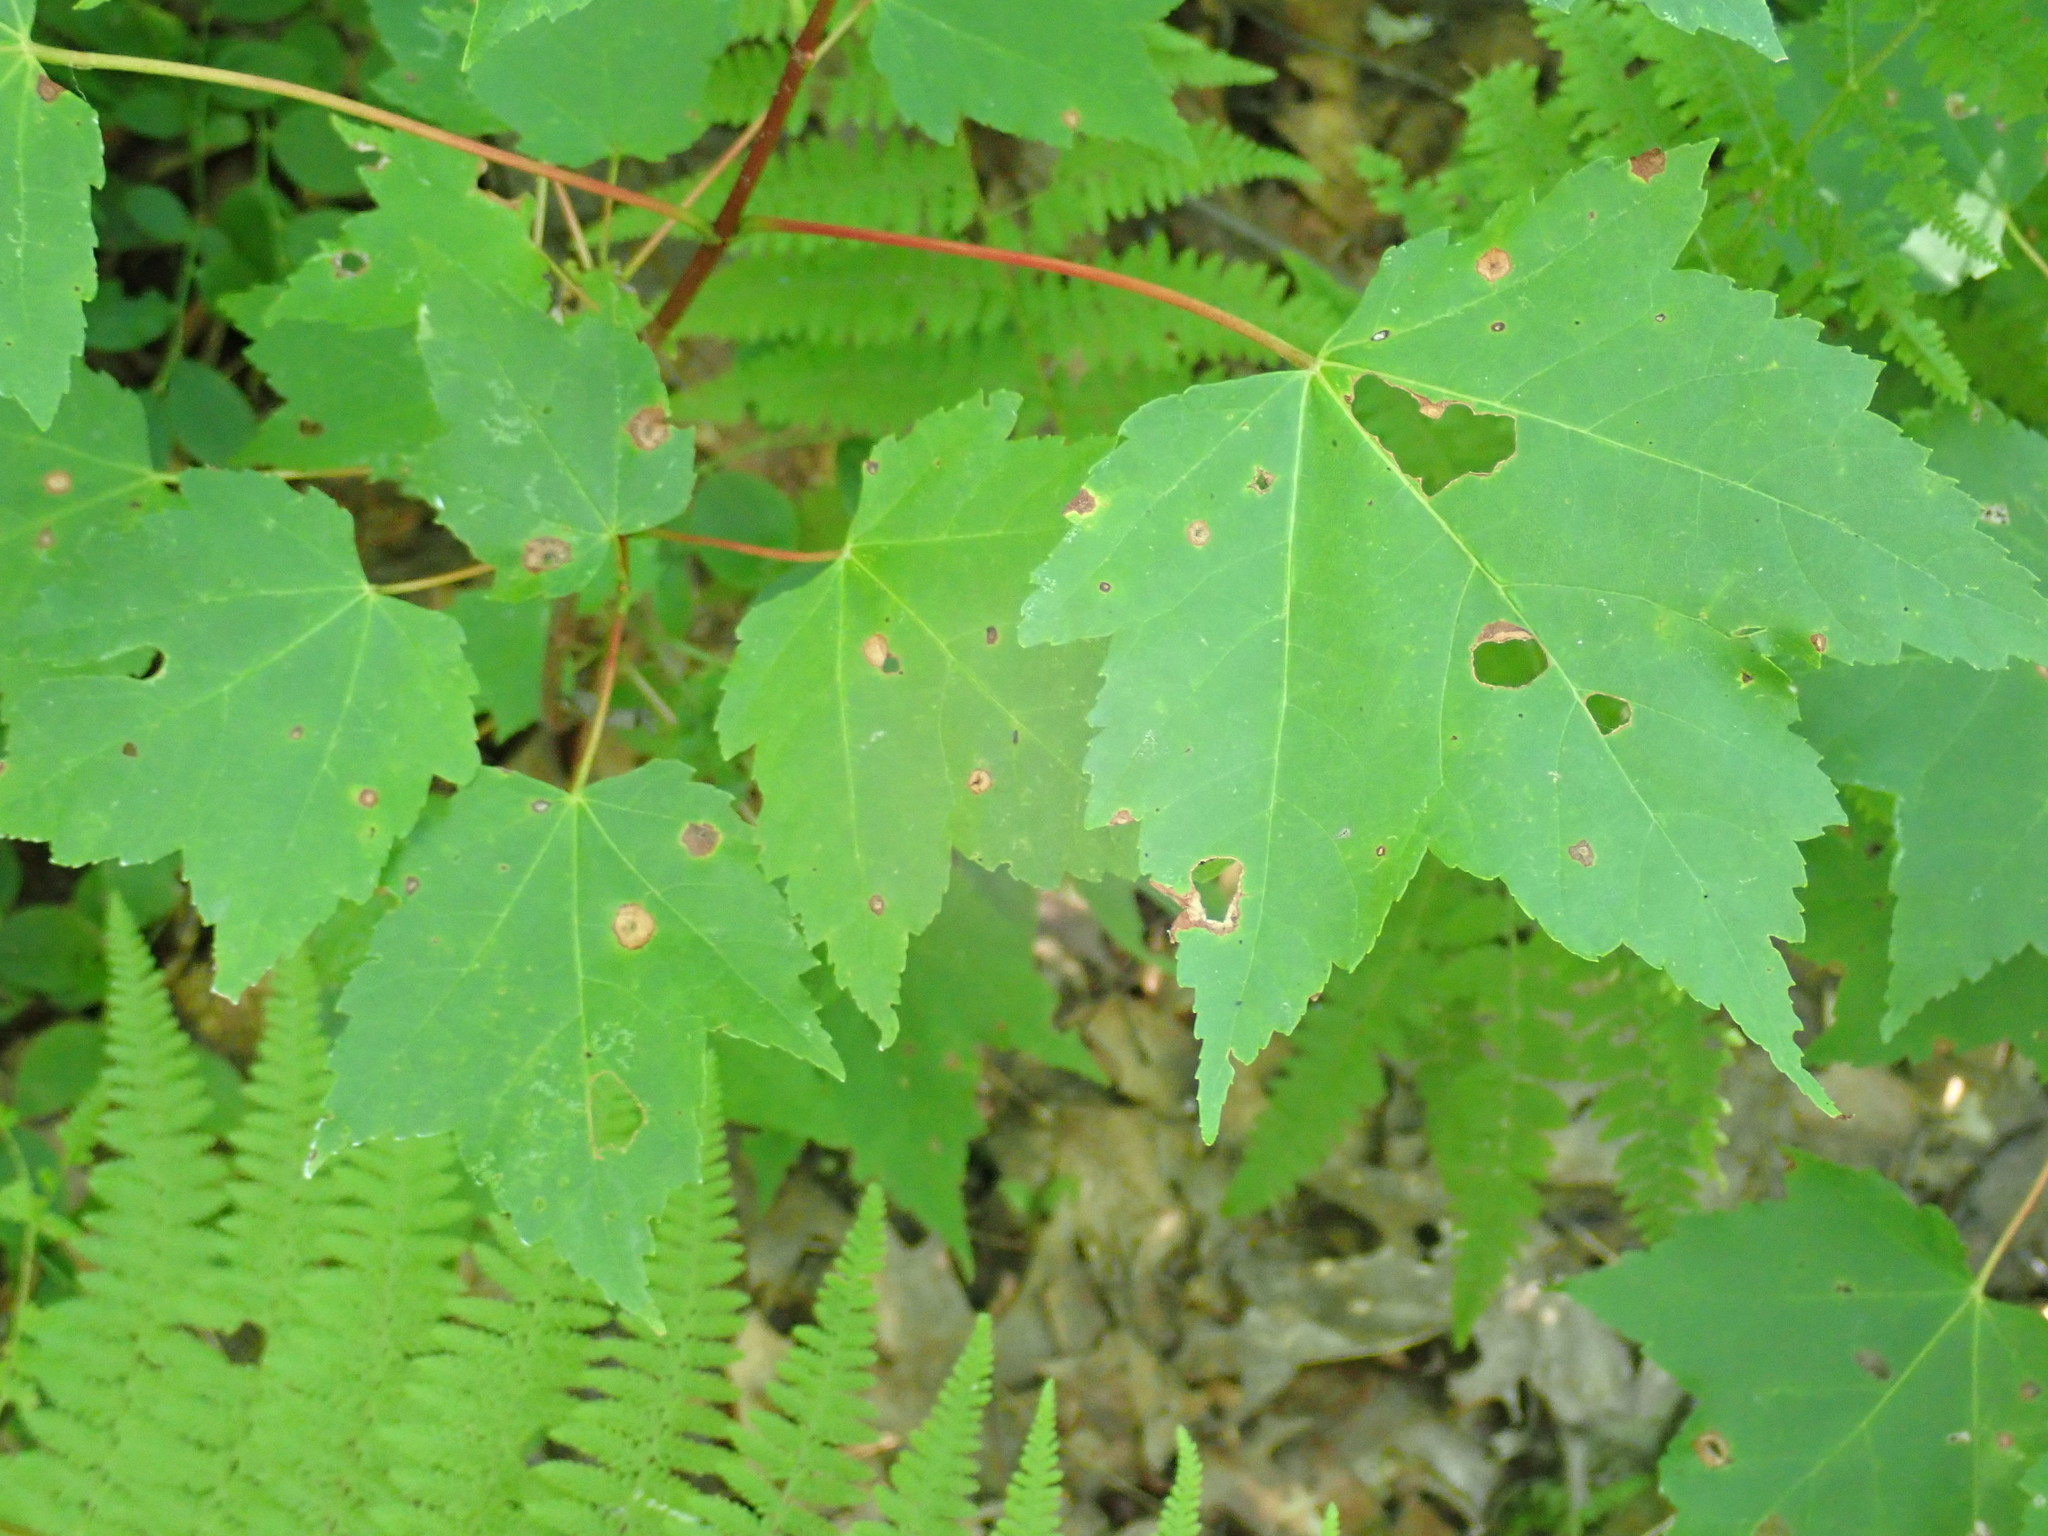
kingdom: Plantae
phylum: Tracheophyta
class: Magnoliopsida
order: Sapindales
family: Sapindaceae
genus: Acer
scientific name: Acer rubrum
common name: Red maple
